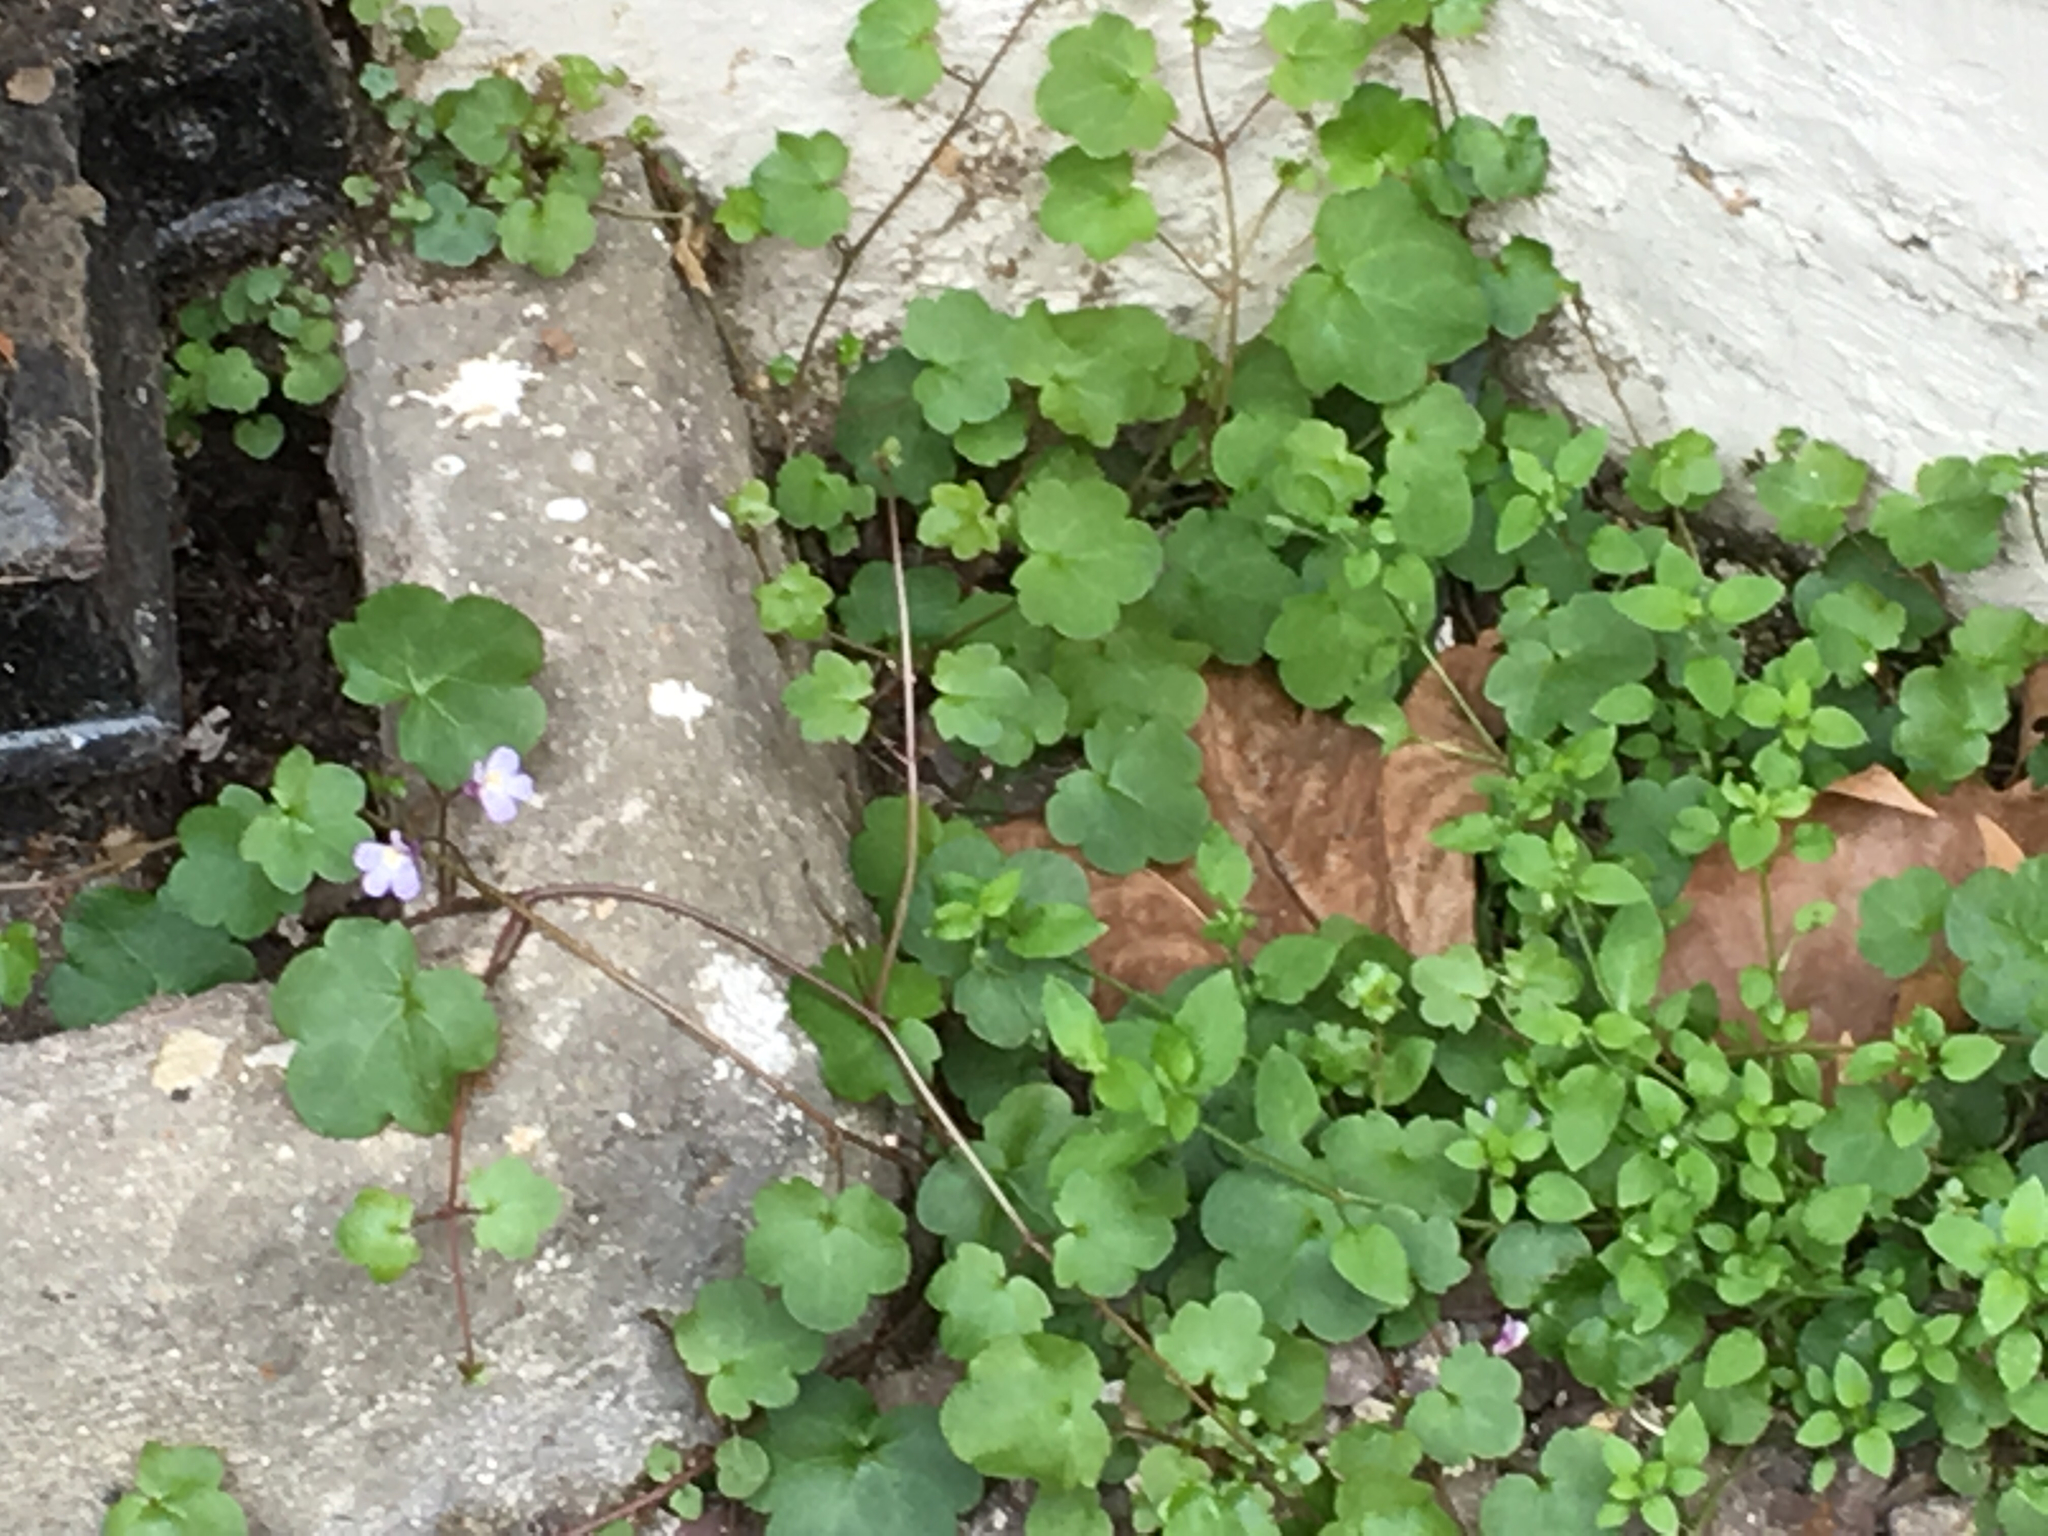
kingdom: Plantae
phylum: Tracheophyta
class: Magnoliopsida
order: Lamiales
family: Plantaginaceae
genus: Cymbalaria
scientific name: Cymbalaria muralis
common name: Ivy-leaved toadflax
